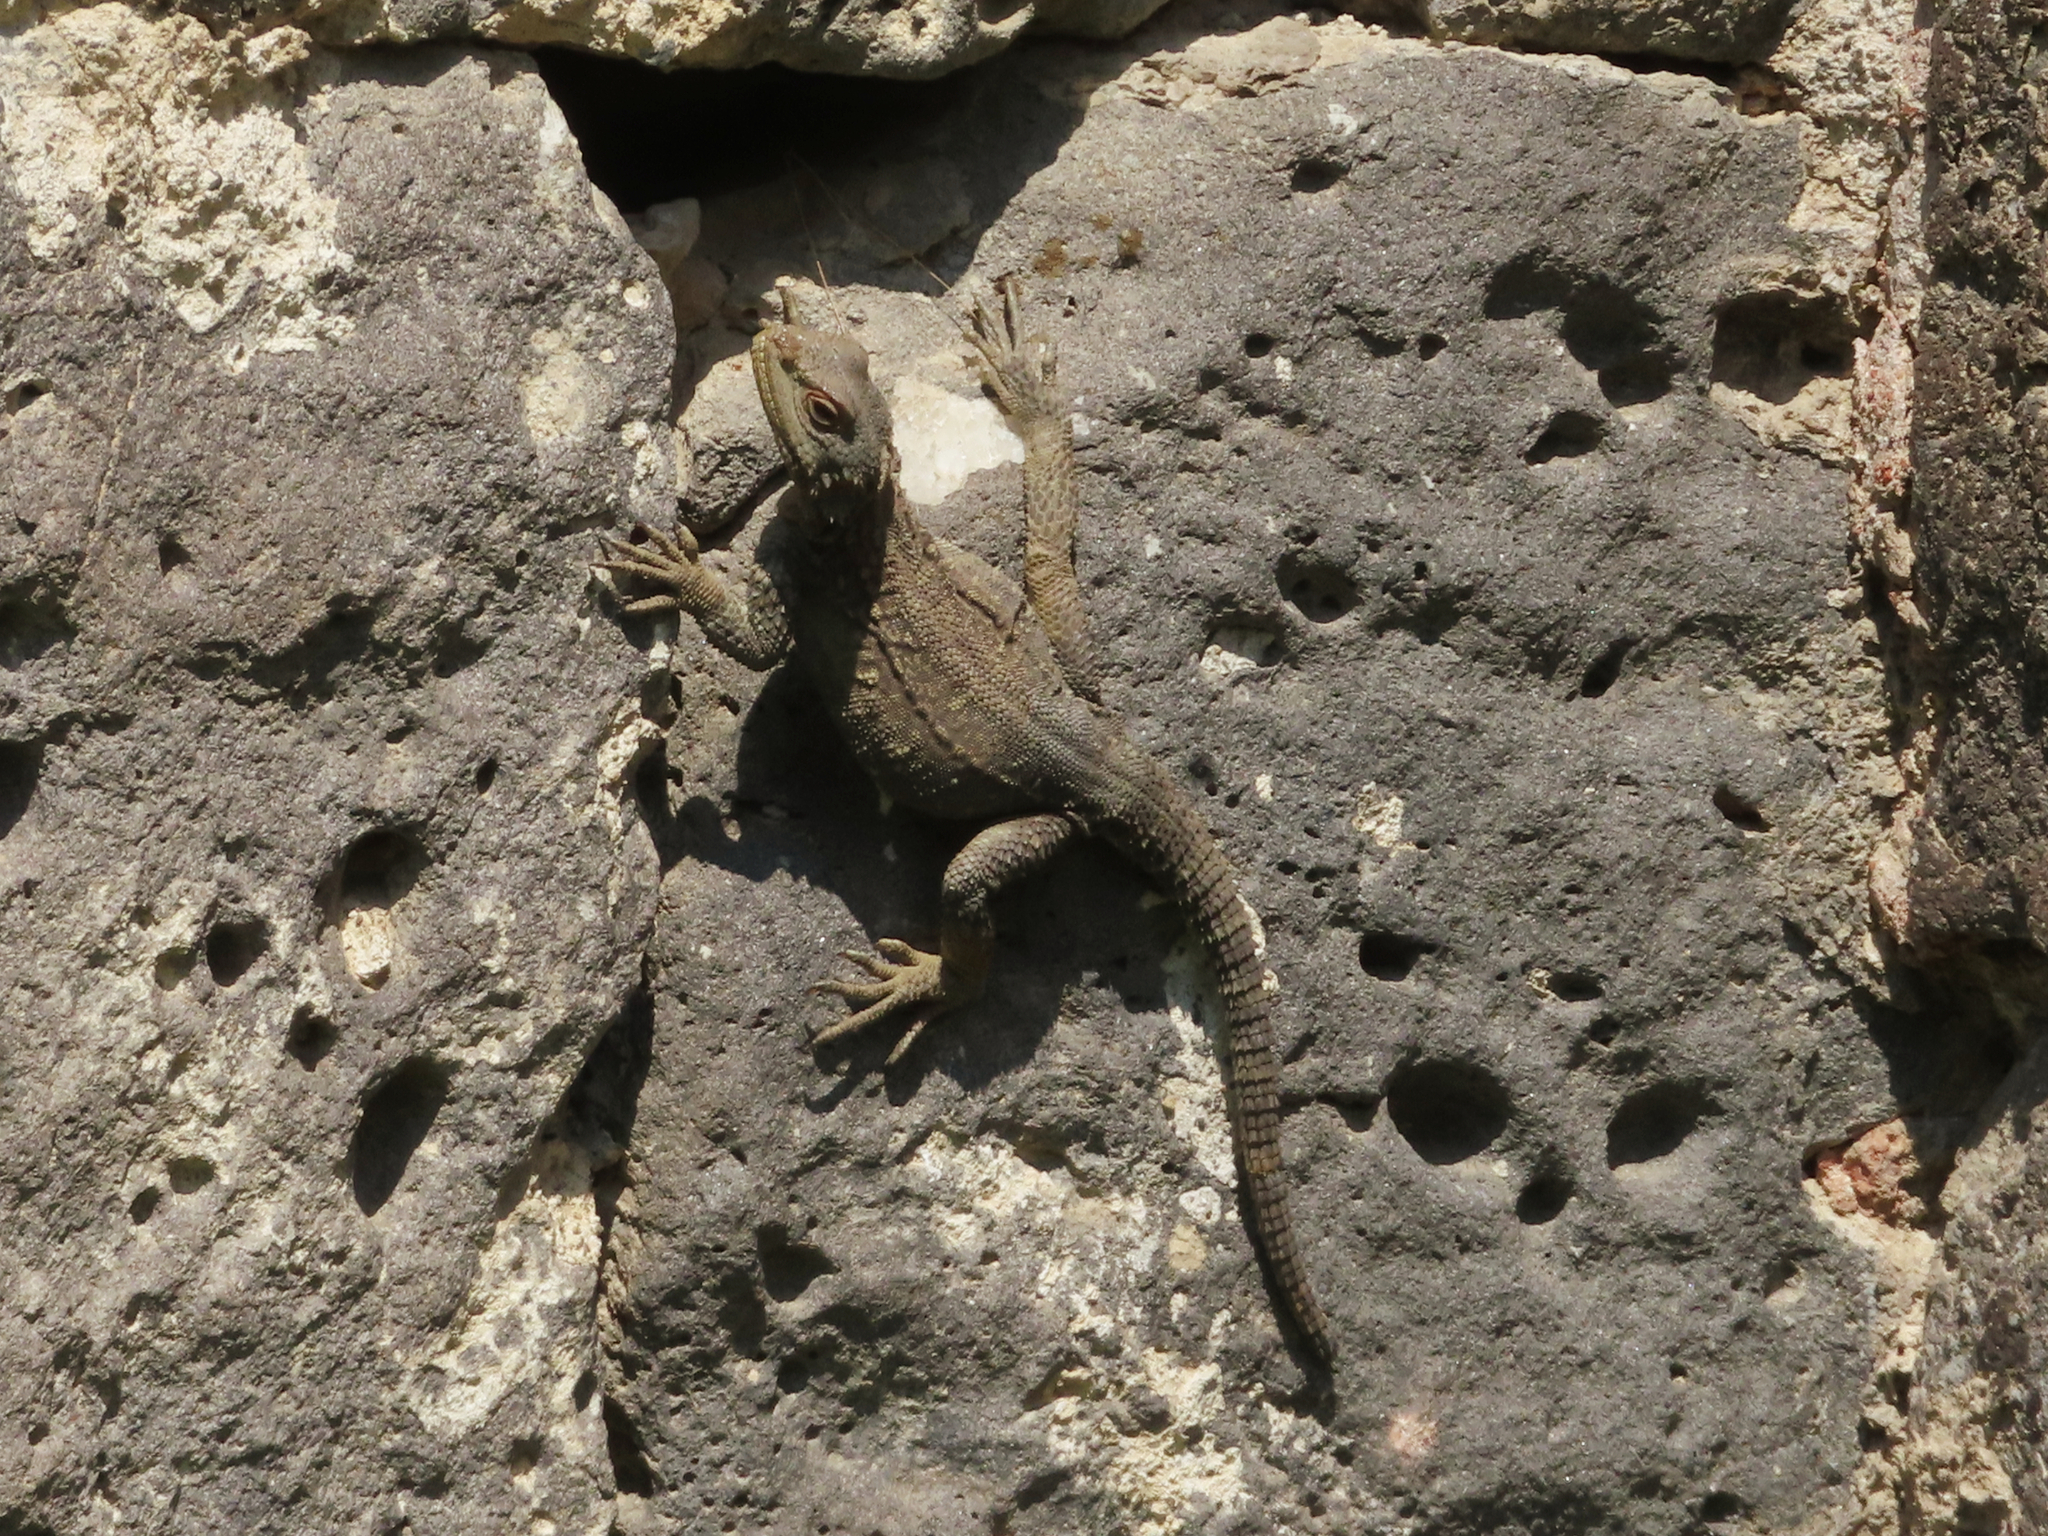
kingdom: Animalia
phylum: Chordata
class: Squamata
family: Agamidae
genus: Paralaudakia
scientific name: Paralaudakia caucasia
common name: Caucasian agama
